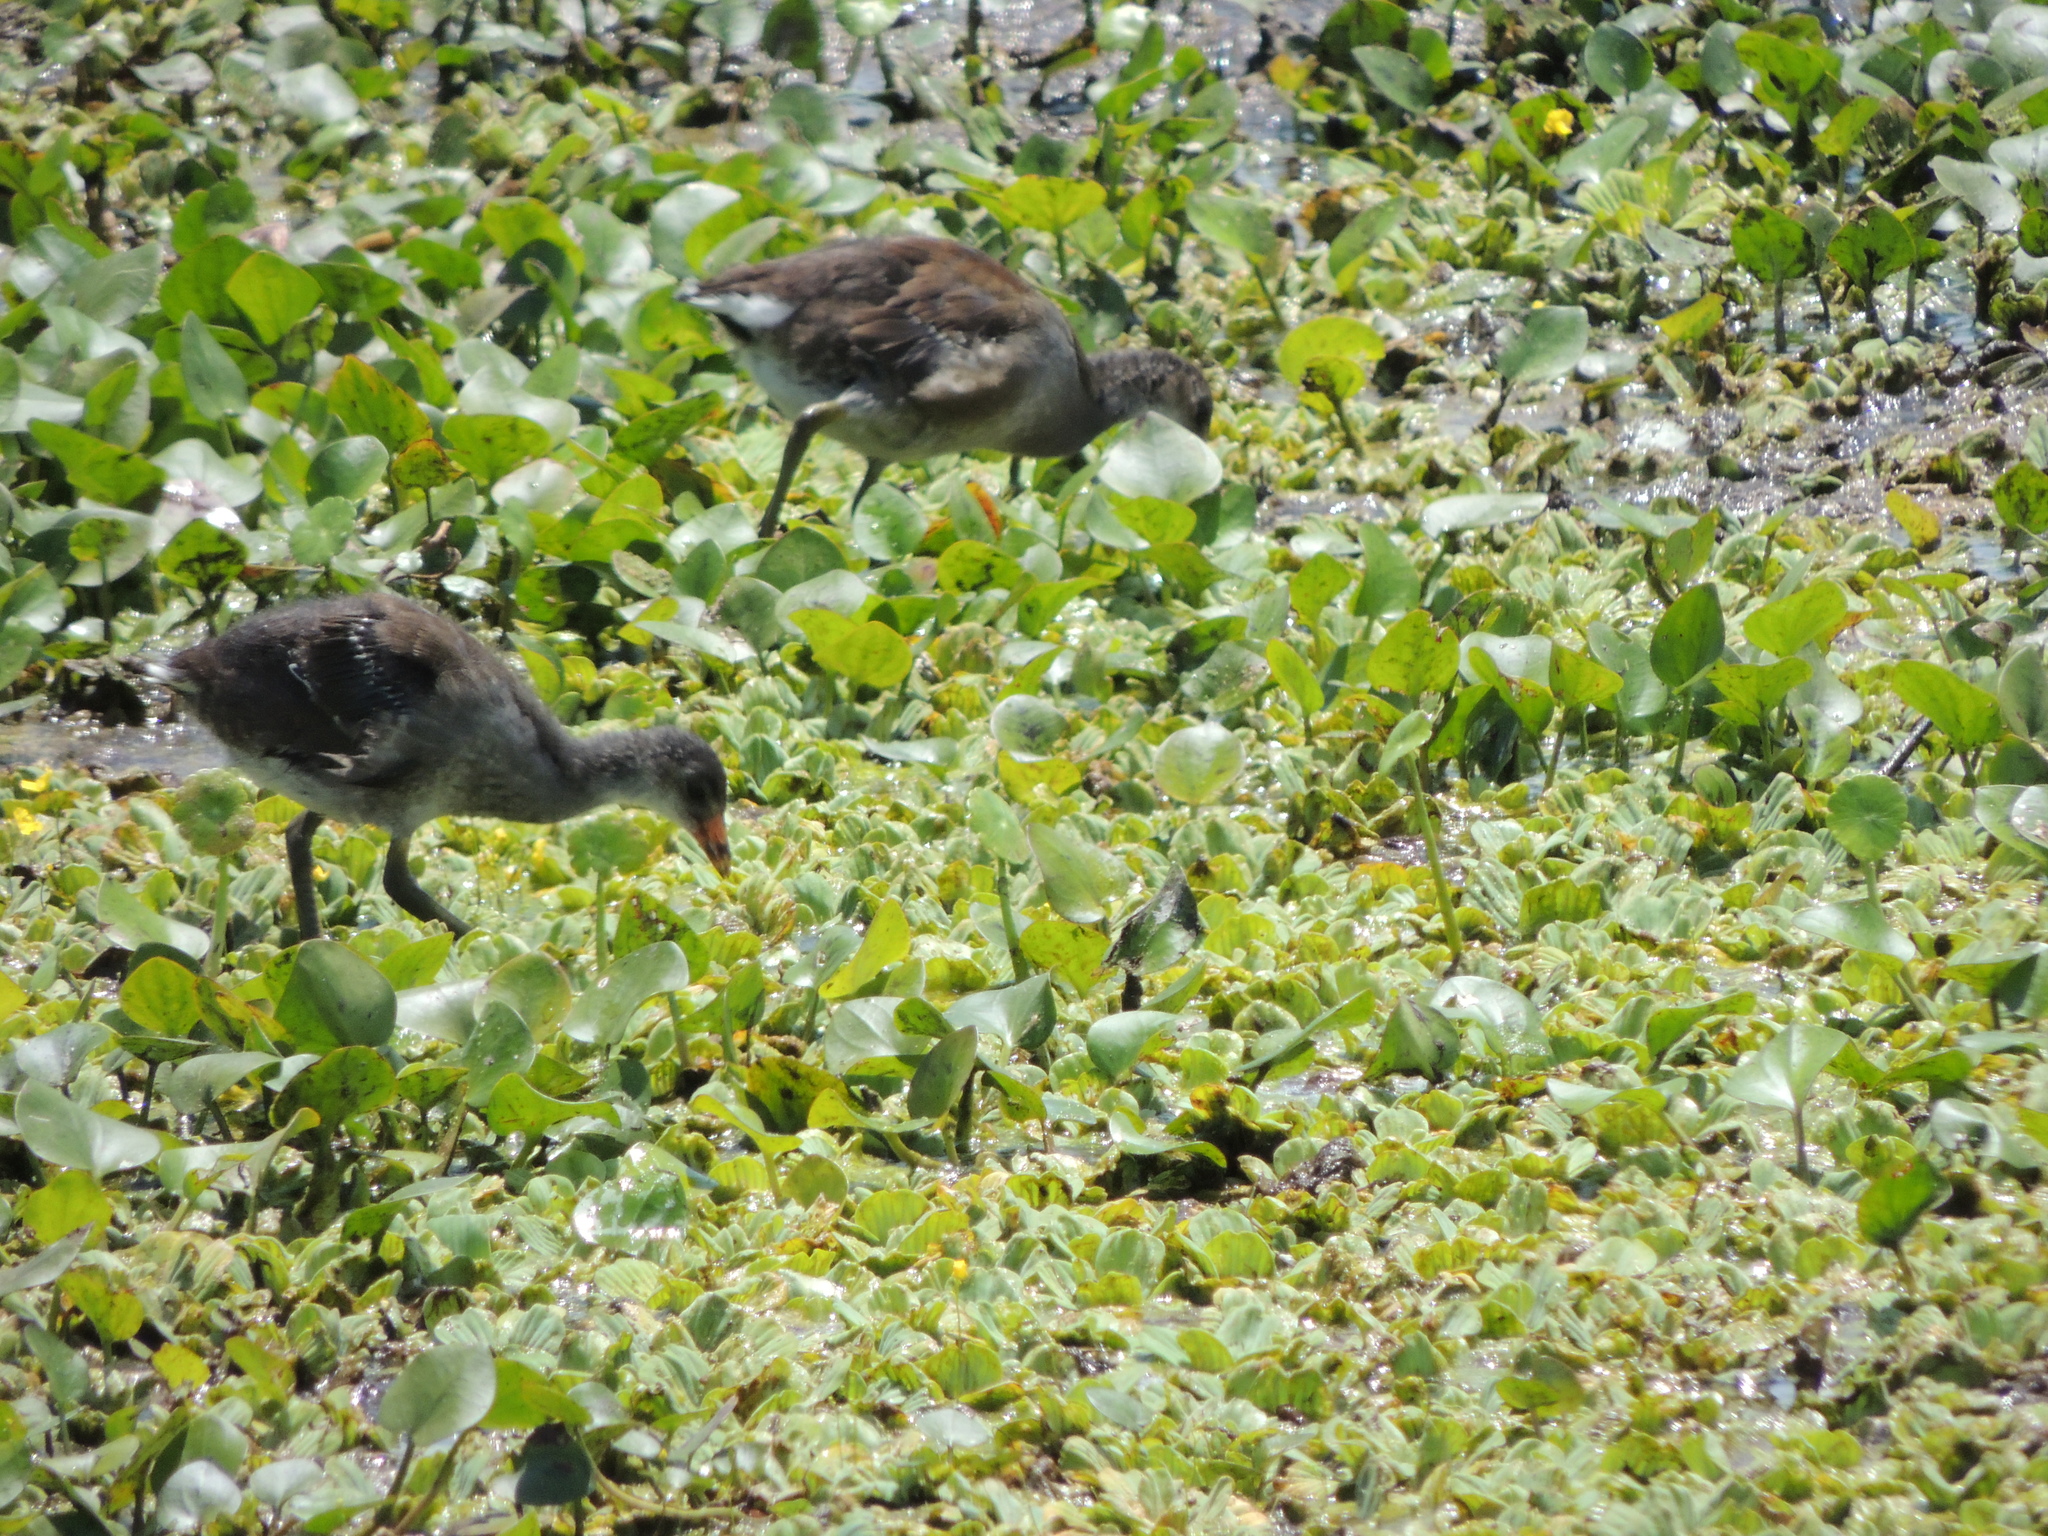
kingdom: Animalia
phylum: Chordata
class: Aves
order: Gruiformes
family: Rallidae
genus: Gallinula
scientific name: Gallinula chloropus
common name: Common moorhen
